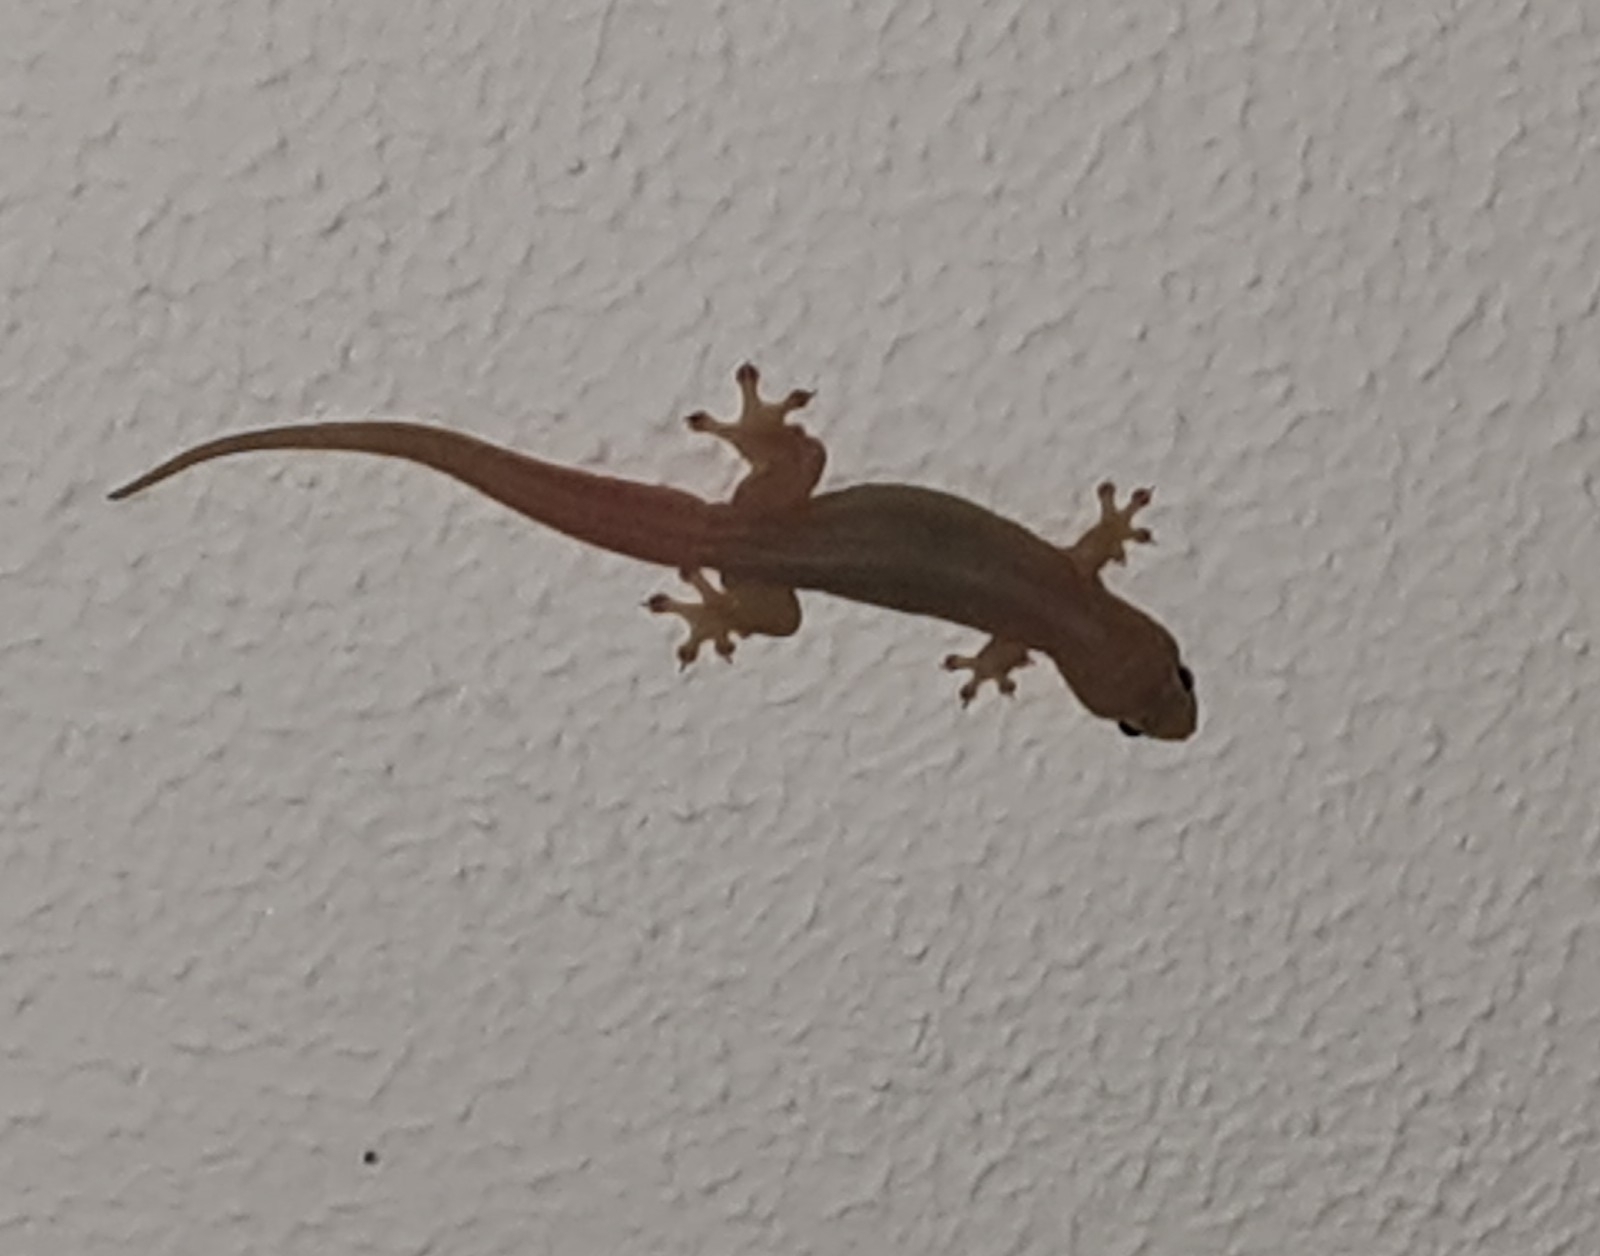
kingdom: Animalia
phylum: Chordata
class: Squamata
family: Gekkonidae
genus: Gehyra
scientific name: Gehyra mutilata
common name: Stump-toed gecko
